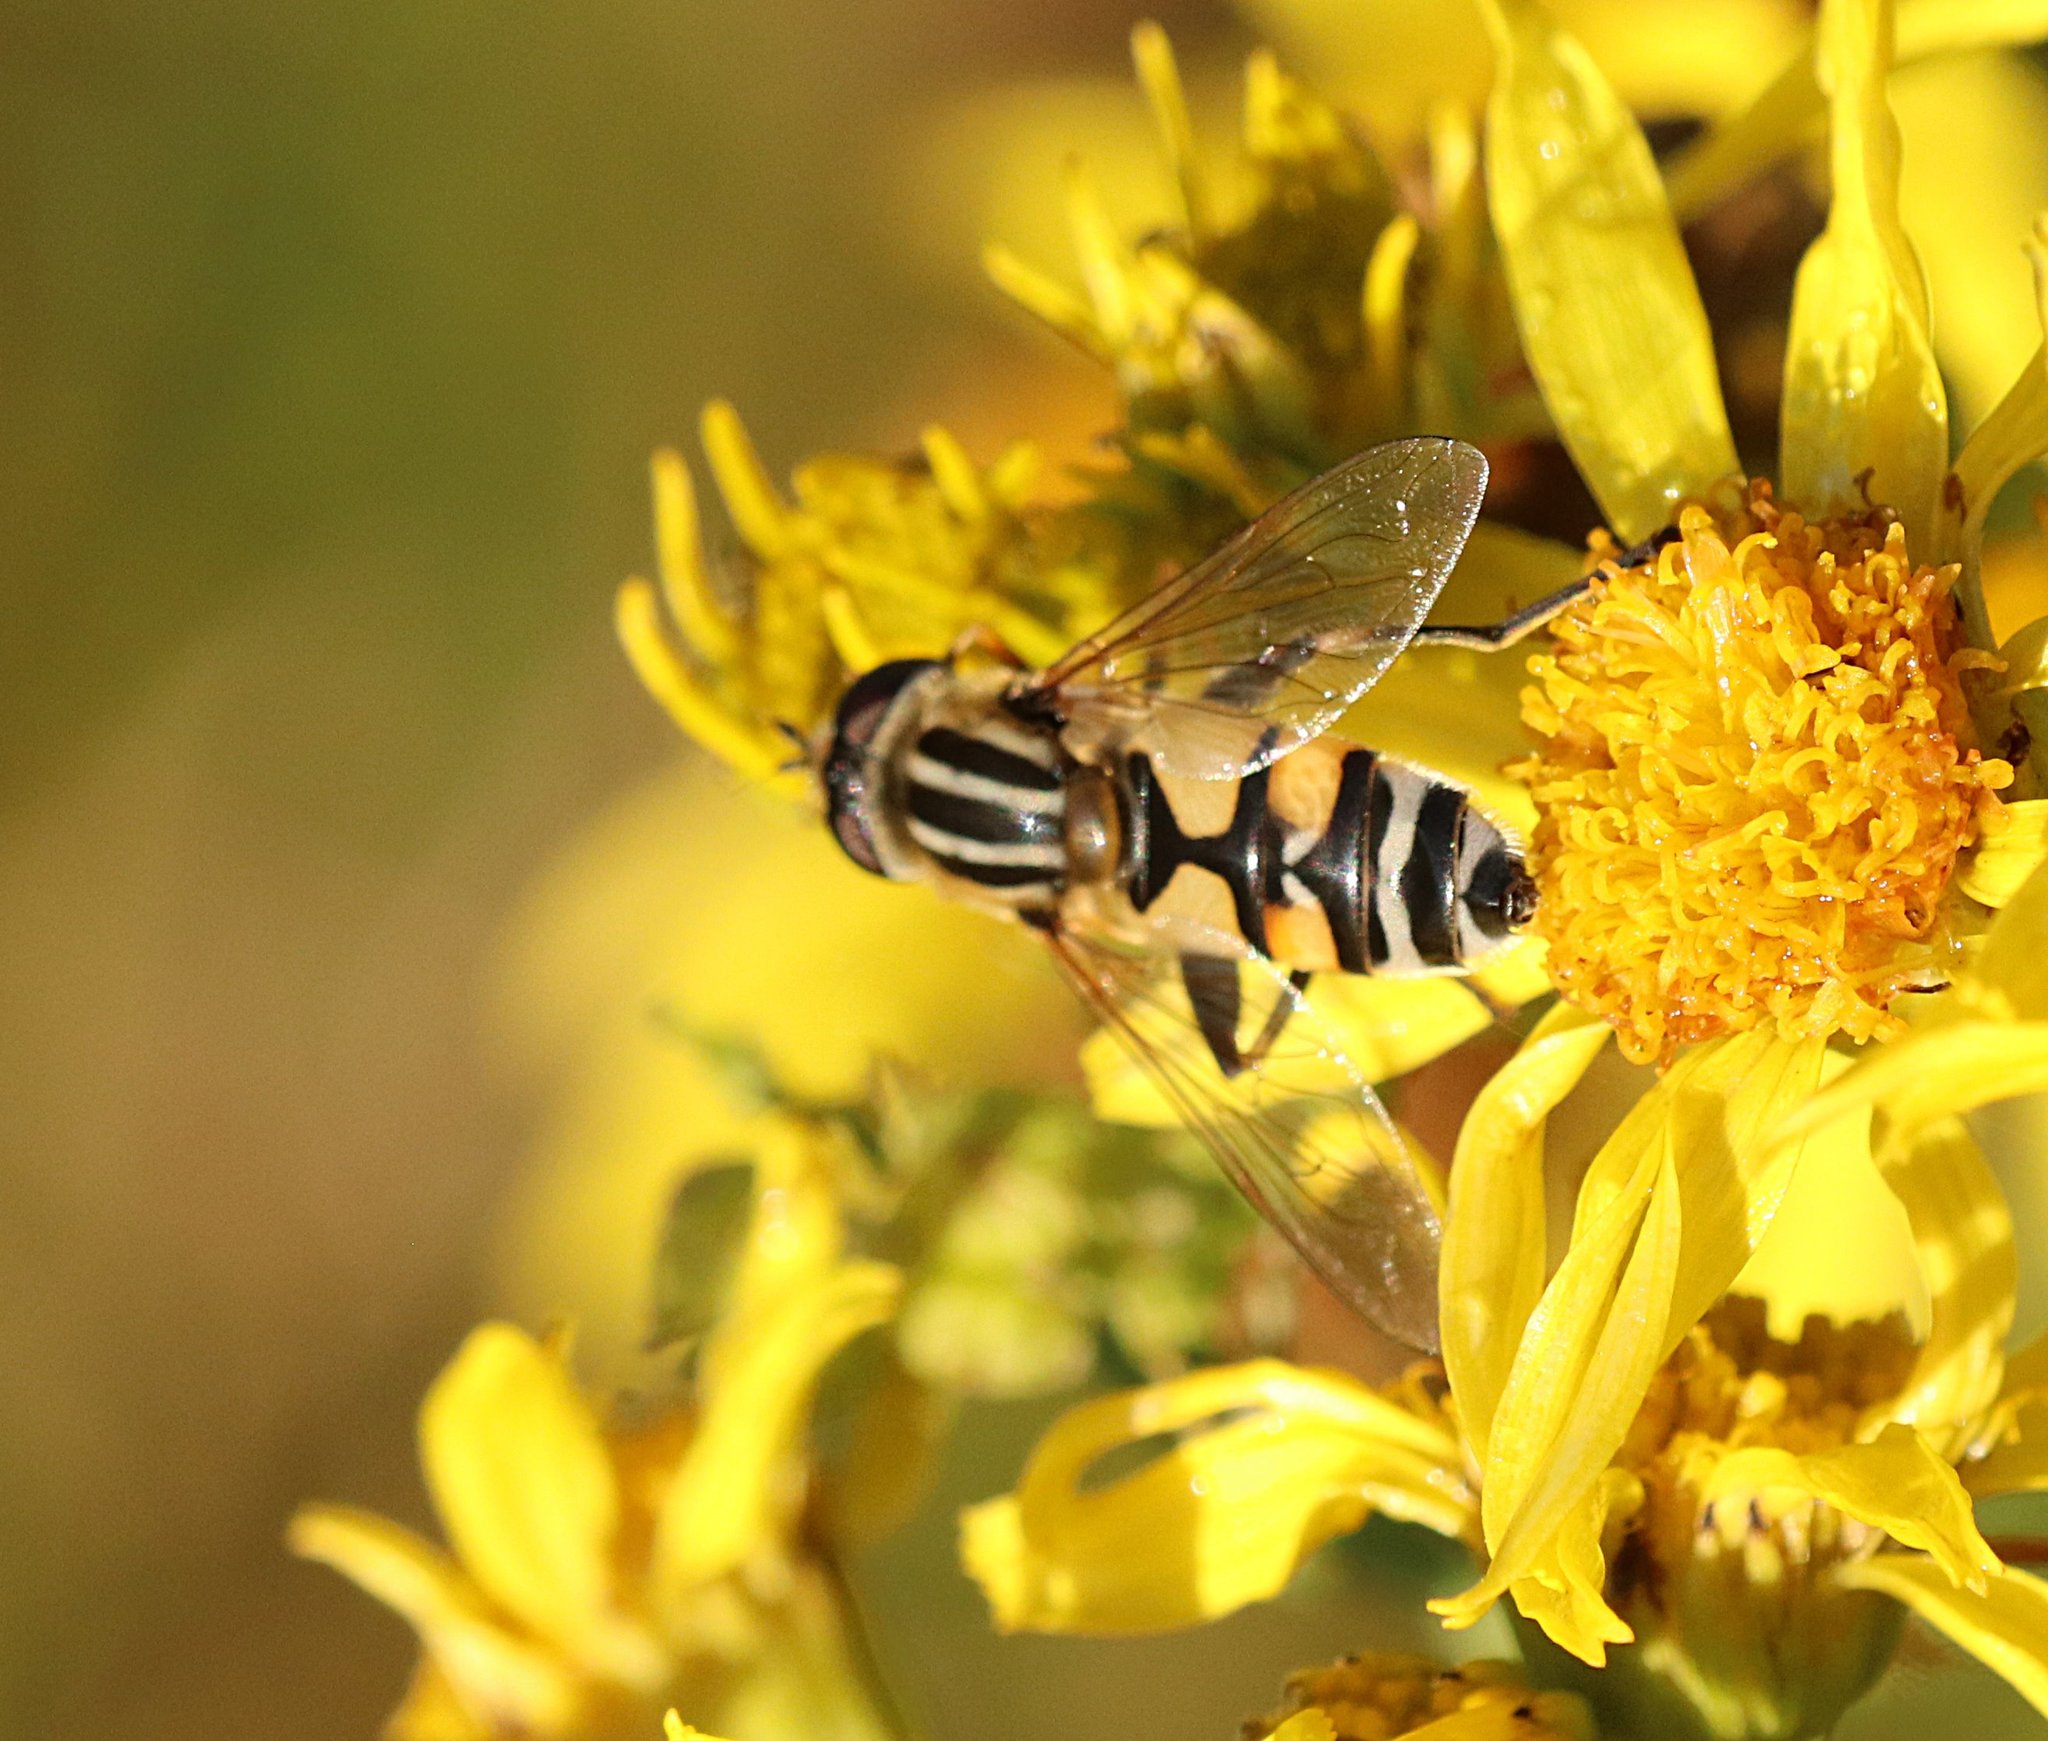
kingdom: Animalia
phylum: Arthropoda
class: Insecta
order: Diptera
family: Syrphidae
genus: Helophilus
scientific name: Helophilus trivittatus
